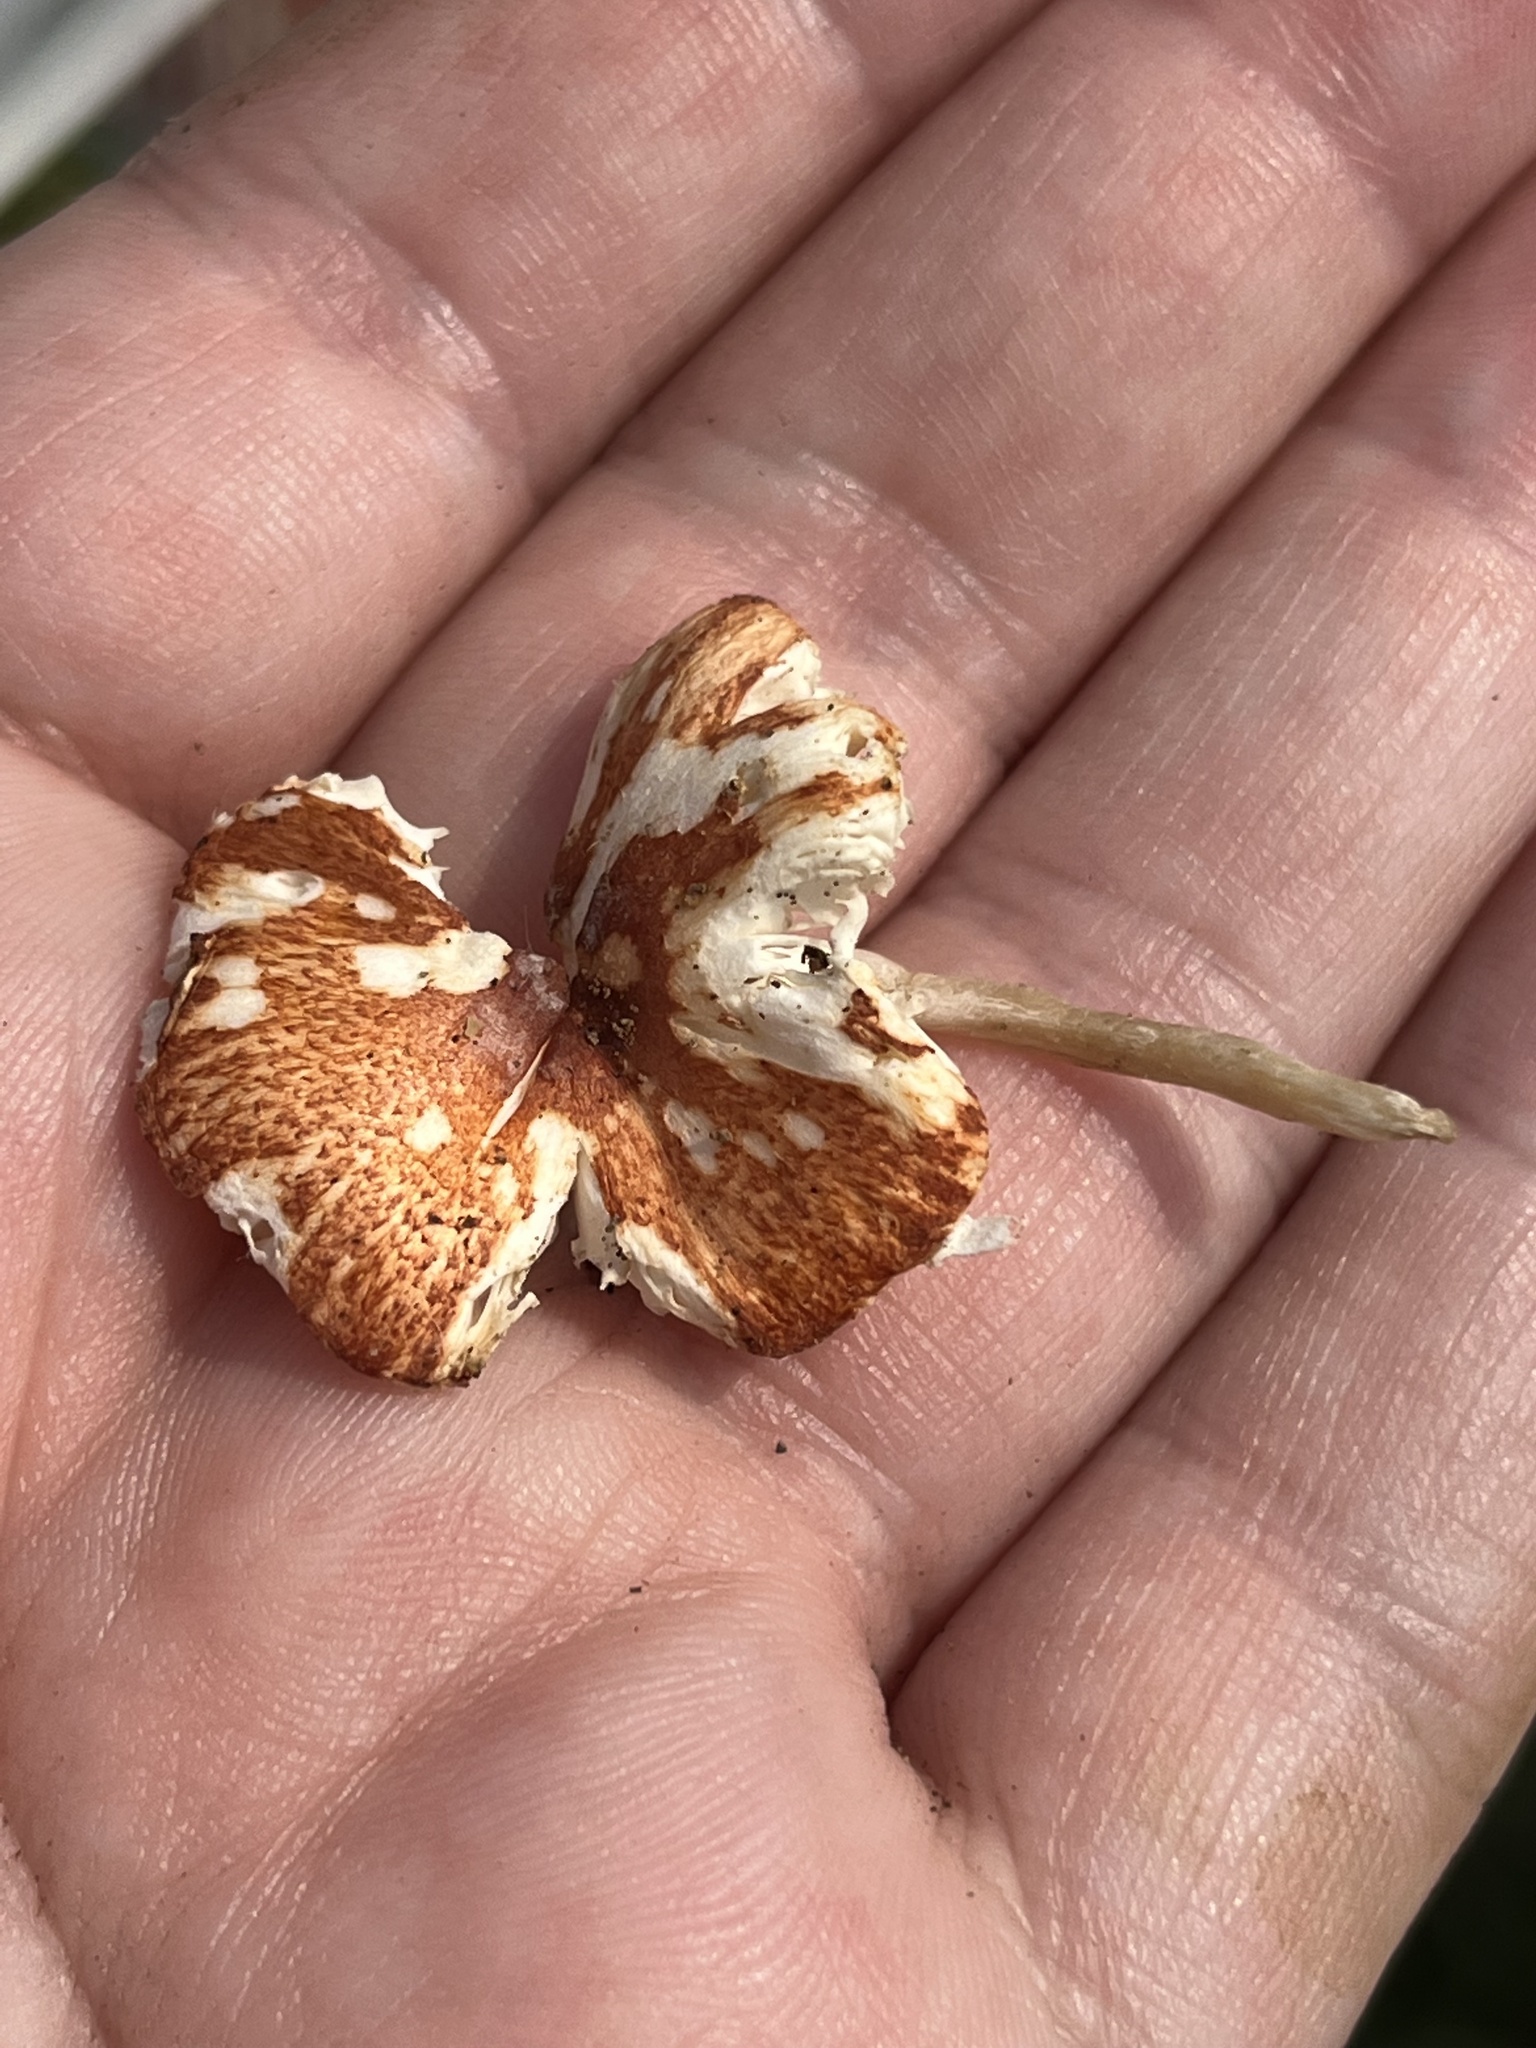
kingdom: Fungi
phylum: Basidiomycota
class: Agaricomycetes
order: Agaricales
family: Agaricaceae
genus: Leucoagaricus
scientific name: Leucoagaricus rubrotinctus
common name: Ruby dapperling
